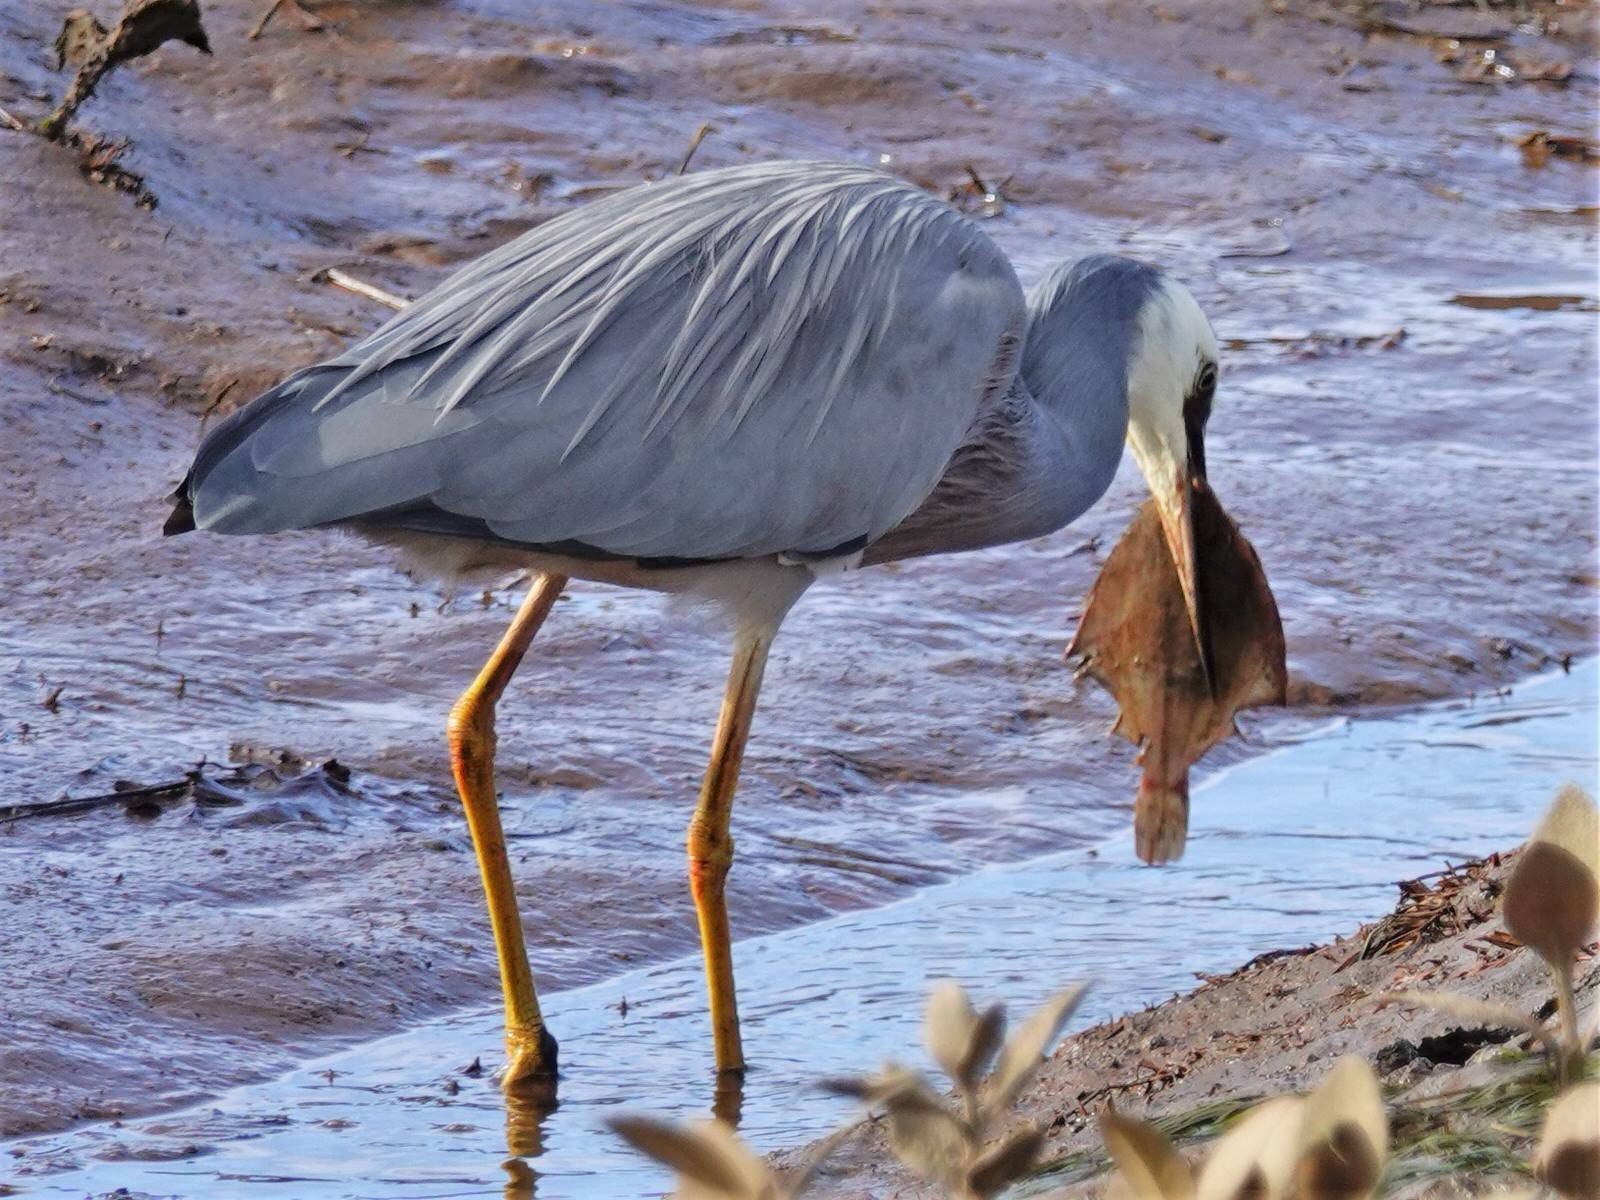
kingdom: Animalia
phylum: Chordata
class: Aves
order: Pelecaniformes
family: Ardeidae
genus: Egretta
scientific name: Egretta novaehollandiae
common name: White-faced heron
